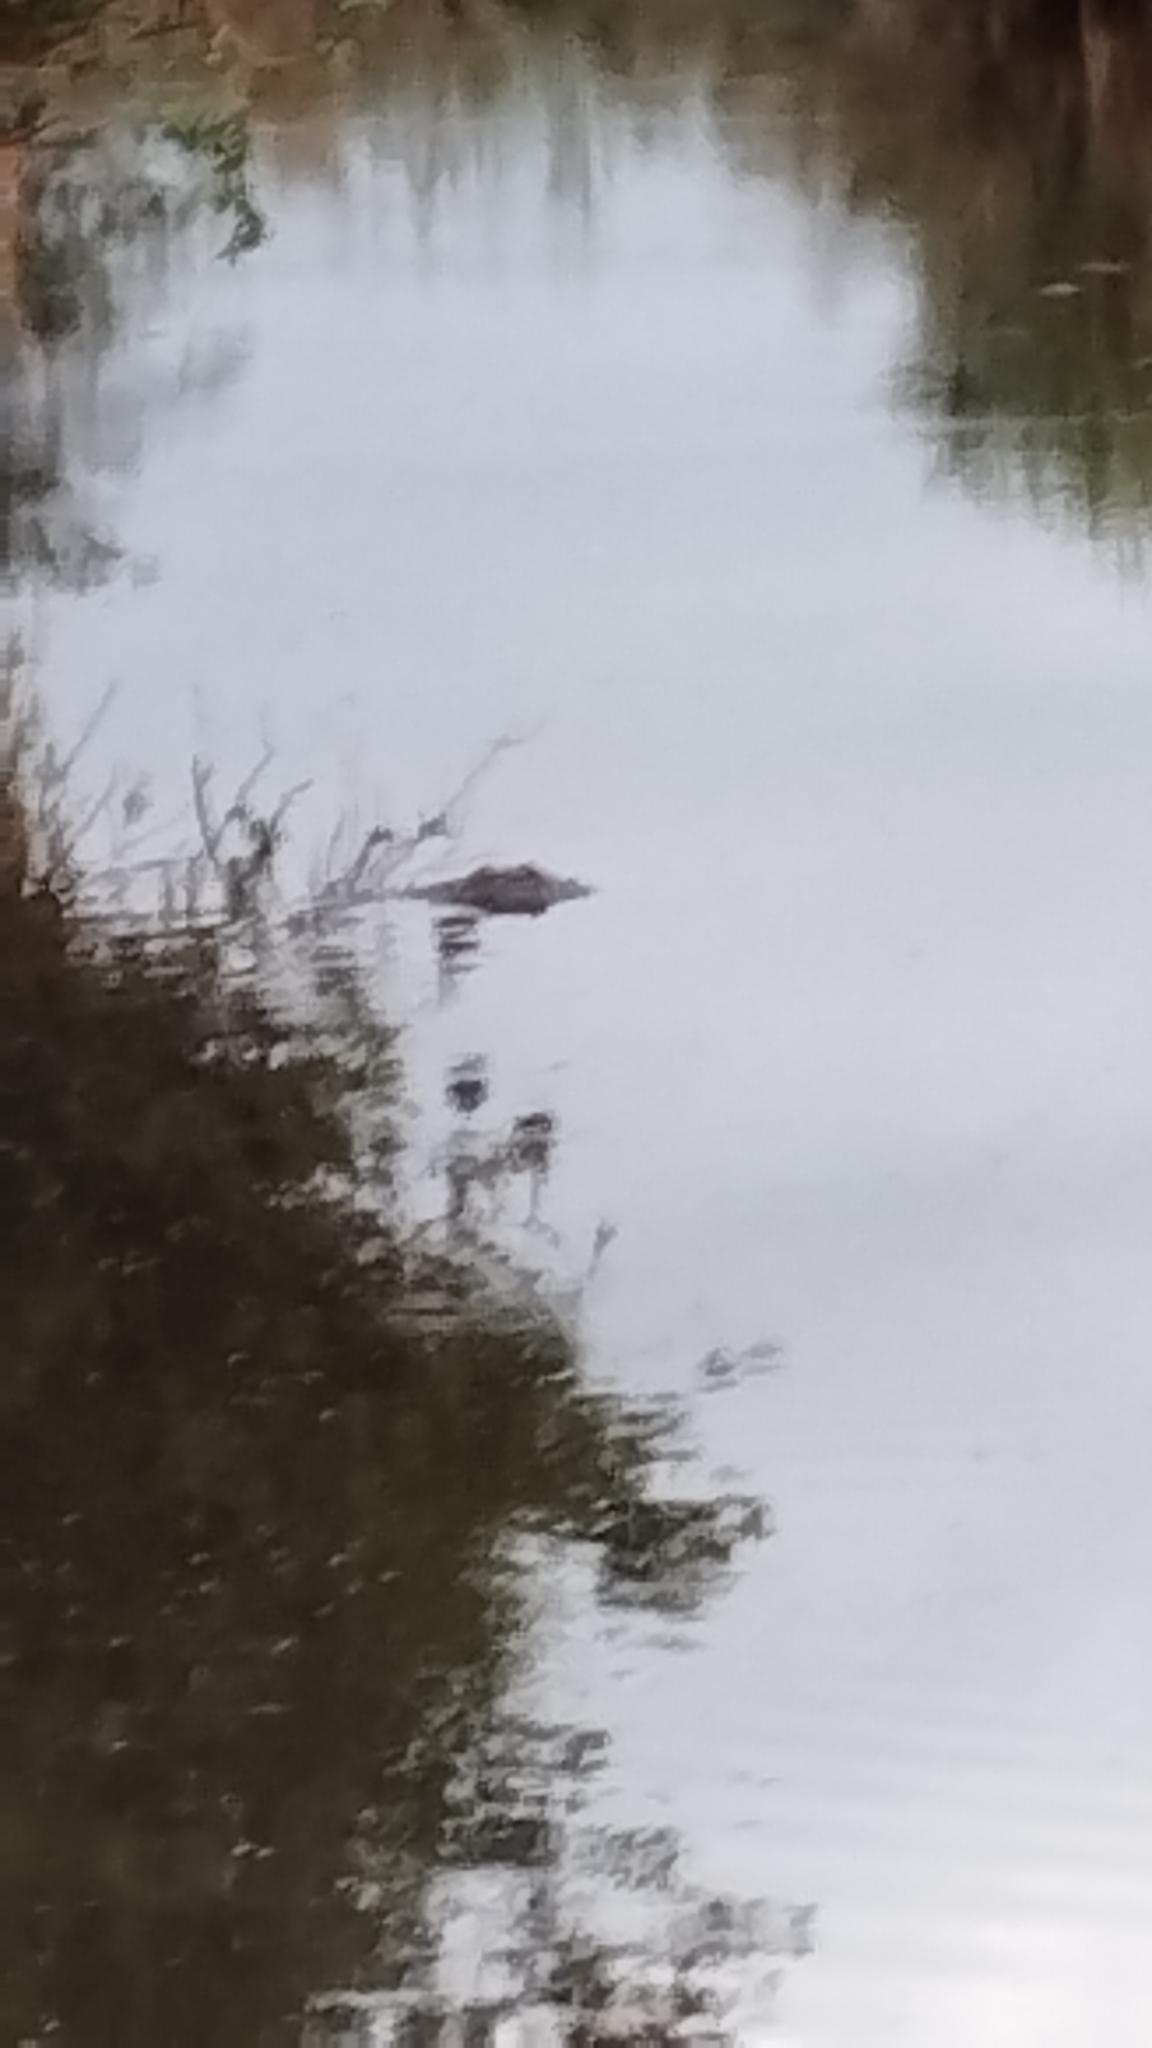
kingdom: Animalia
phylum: Chordata
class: Crocodylia
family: Crocodylidae
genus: Crocodylus
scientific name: Crocodylus niloticus
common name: Nile crocodile
